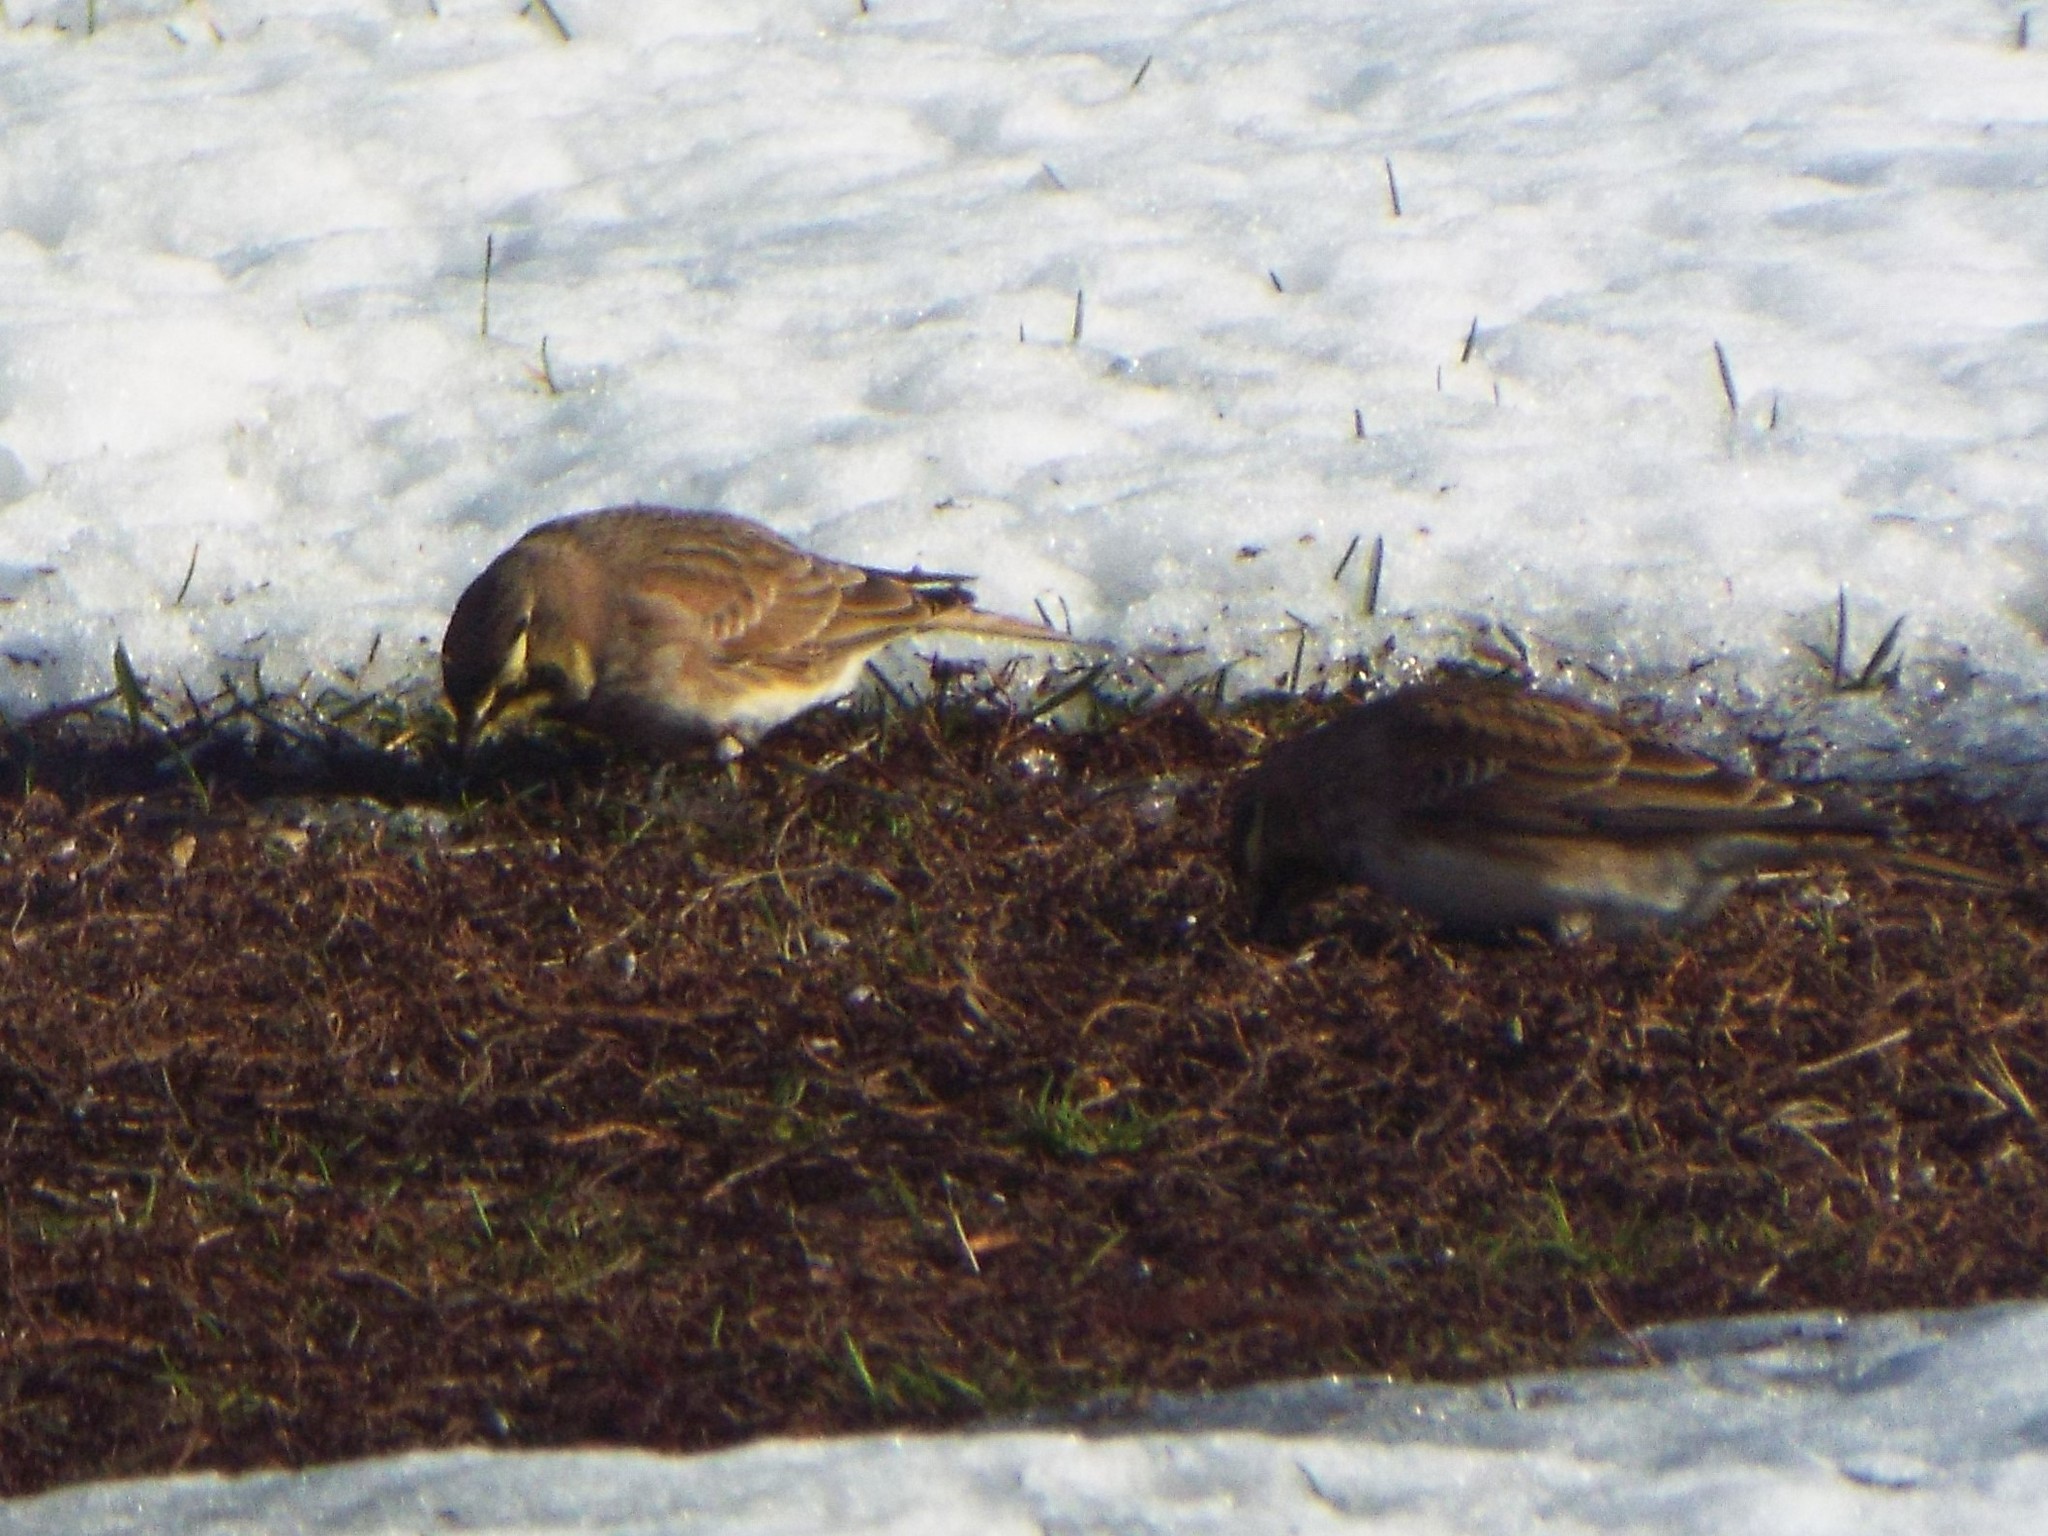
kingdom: Animalia
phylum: Chordata
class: Aves
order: Passeriformes
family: Alaudidae
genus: Eremophila
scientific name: Eremophila alpestris
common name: Horned lark
